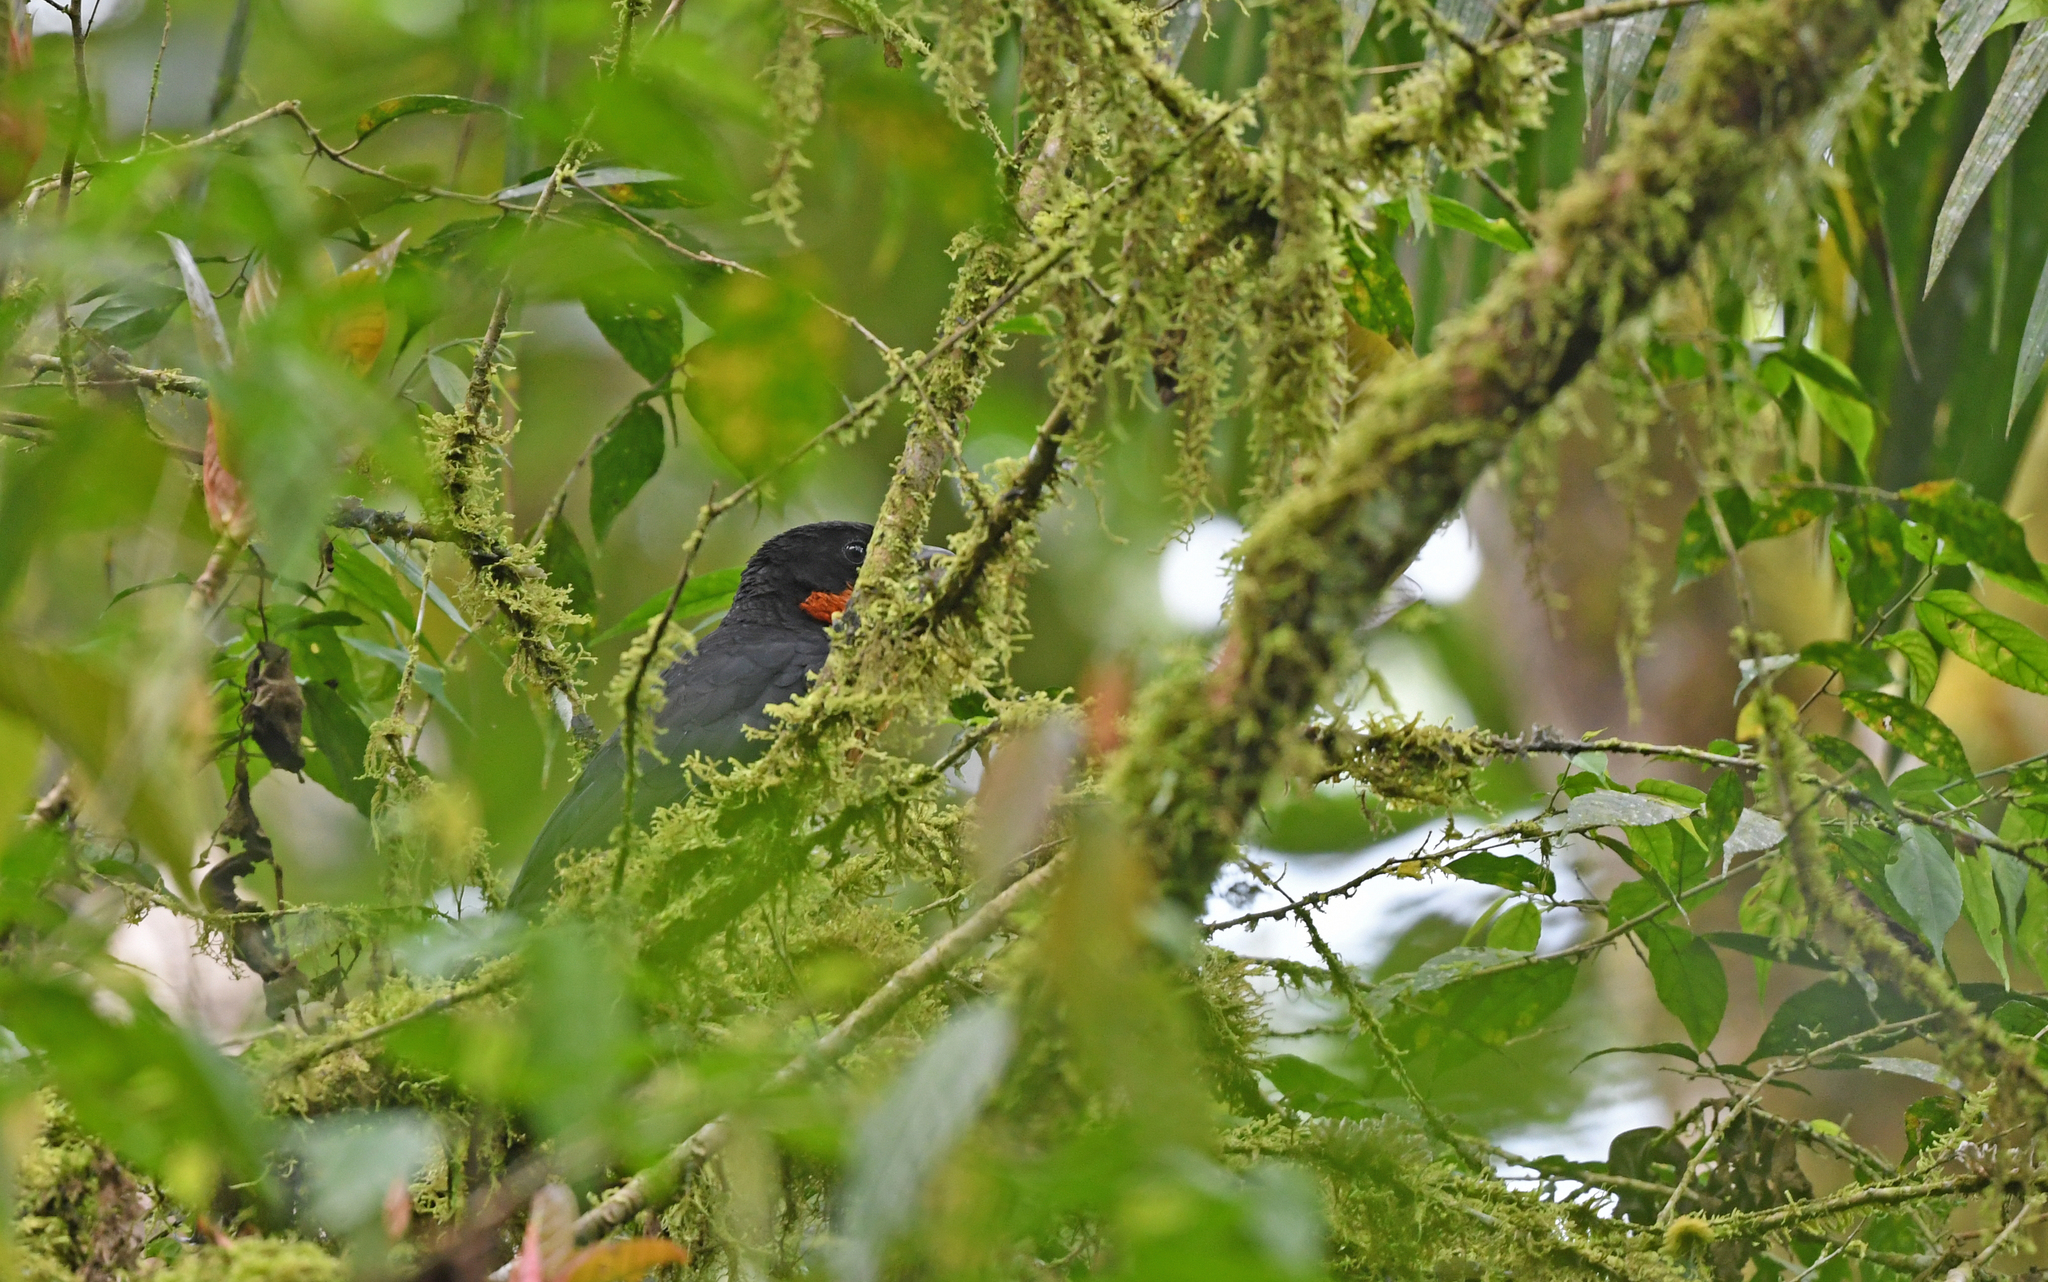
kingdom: Animalia
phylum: Chordata
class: Aves
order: Passeriformes
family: Cotingidae
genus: Pyroderus
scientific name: Pyroderus scutatus
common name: Red-ruffed fruitcrow
